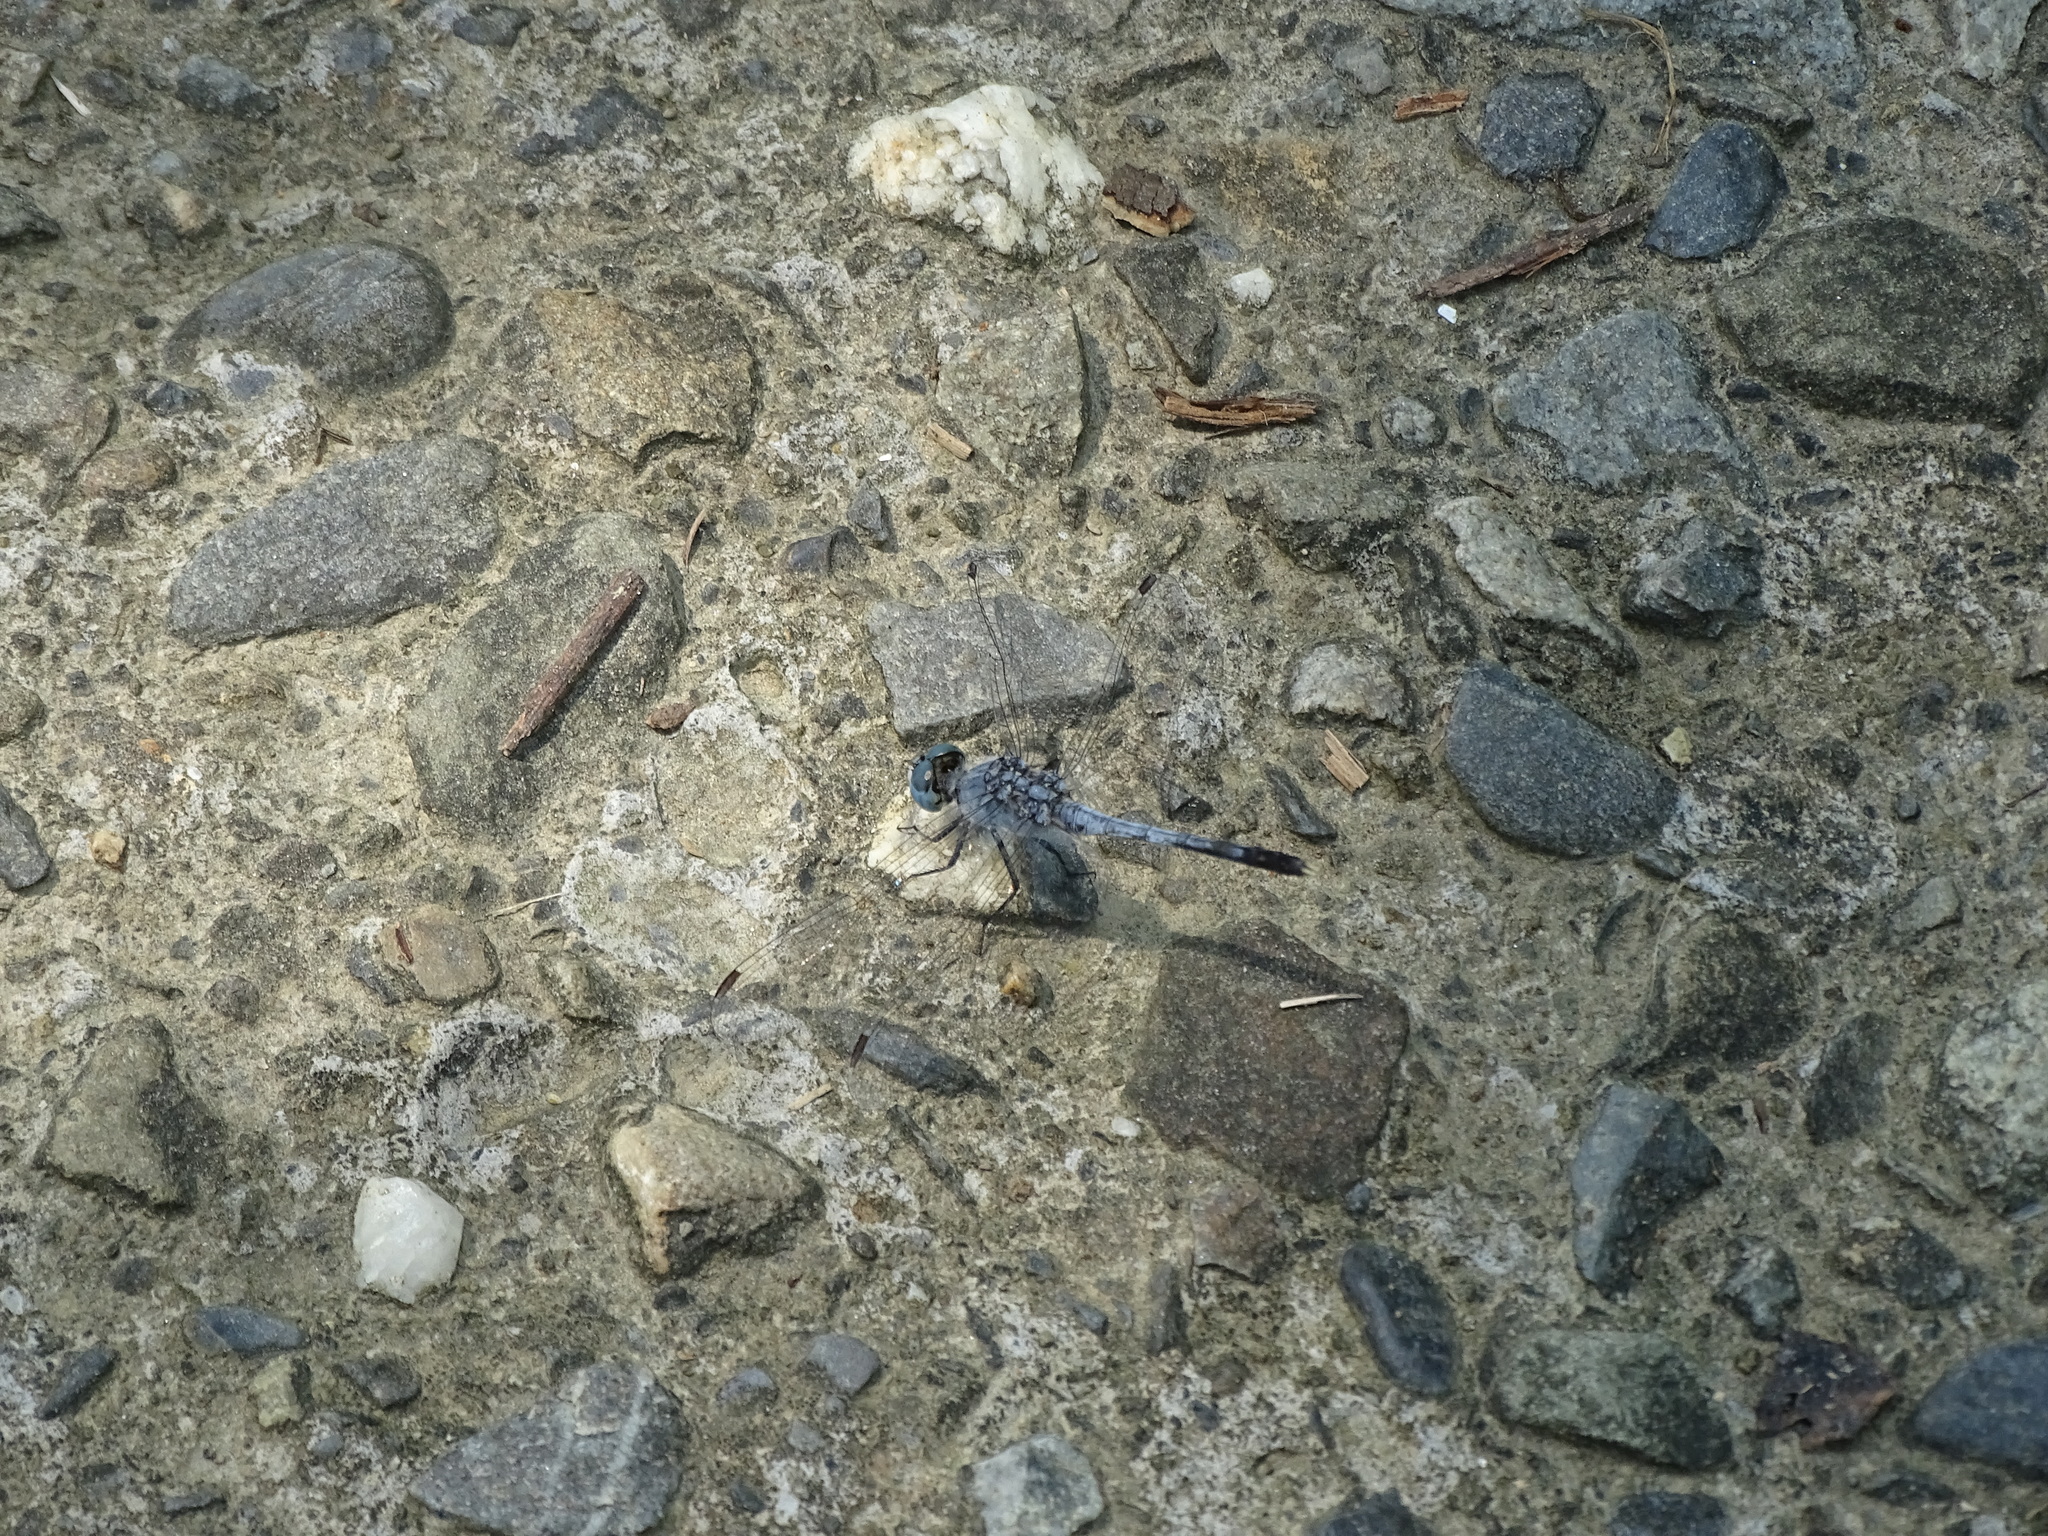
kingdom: Animalia
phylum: Arthropoda
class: Insecta
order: Odonata
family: Libellulidae
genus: Diplacodes
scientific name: Diplacodes trivialis
